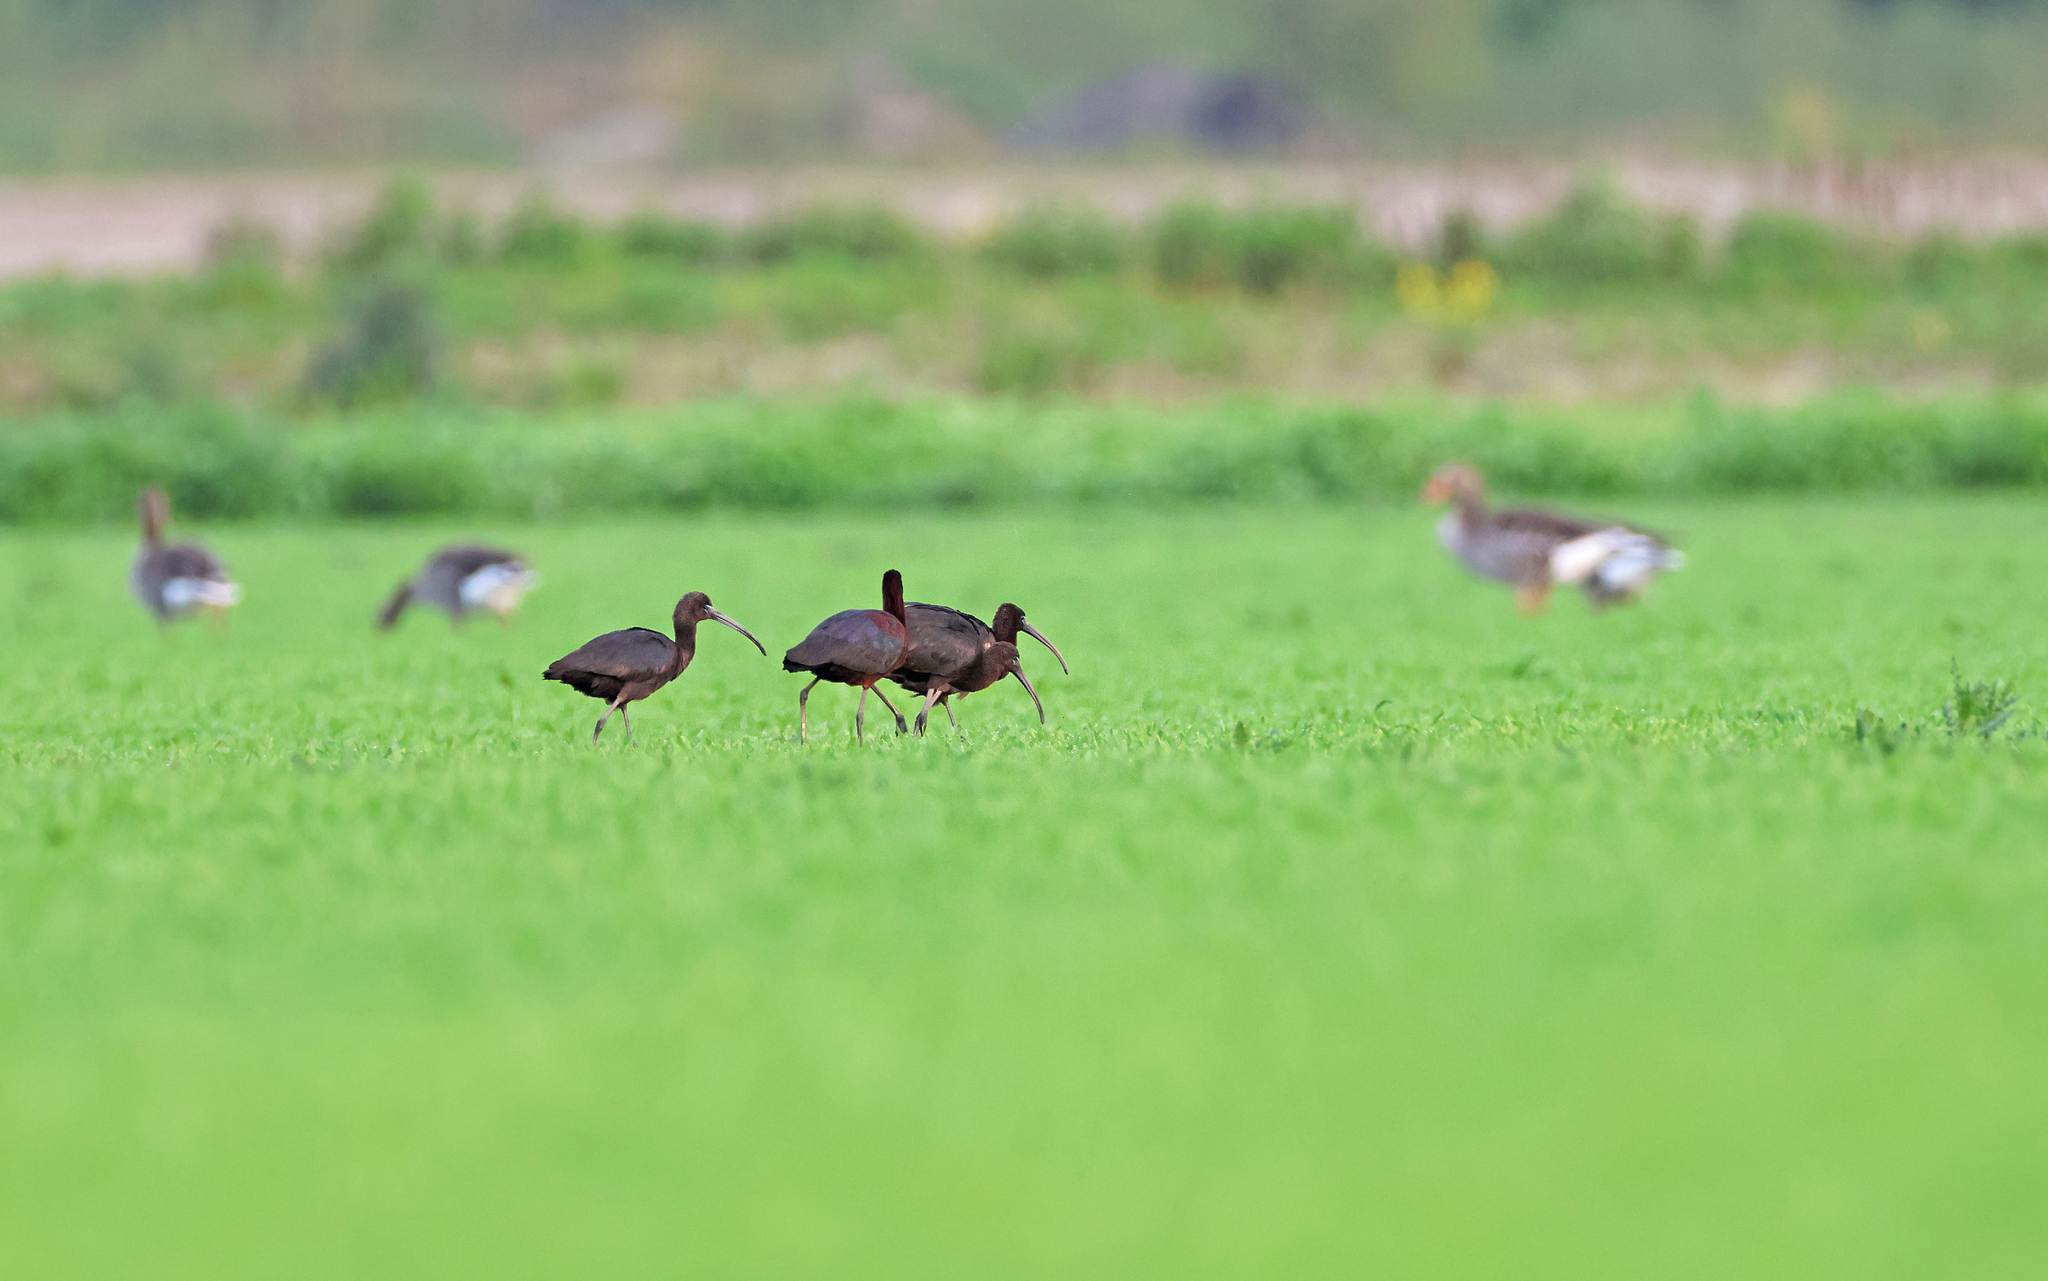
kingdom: Animalia
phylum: Chordata
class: Aves
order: Pelecaniformes
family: Threskiornithidae
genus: Plegadis
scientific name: Plegadis falcinellus
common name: Glossy ibis
